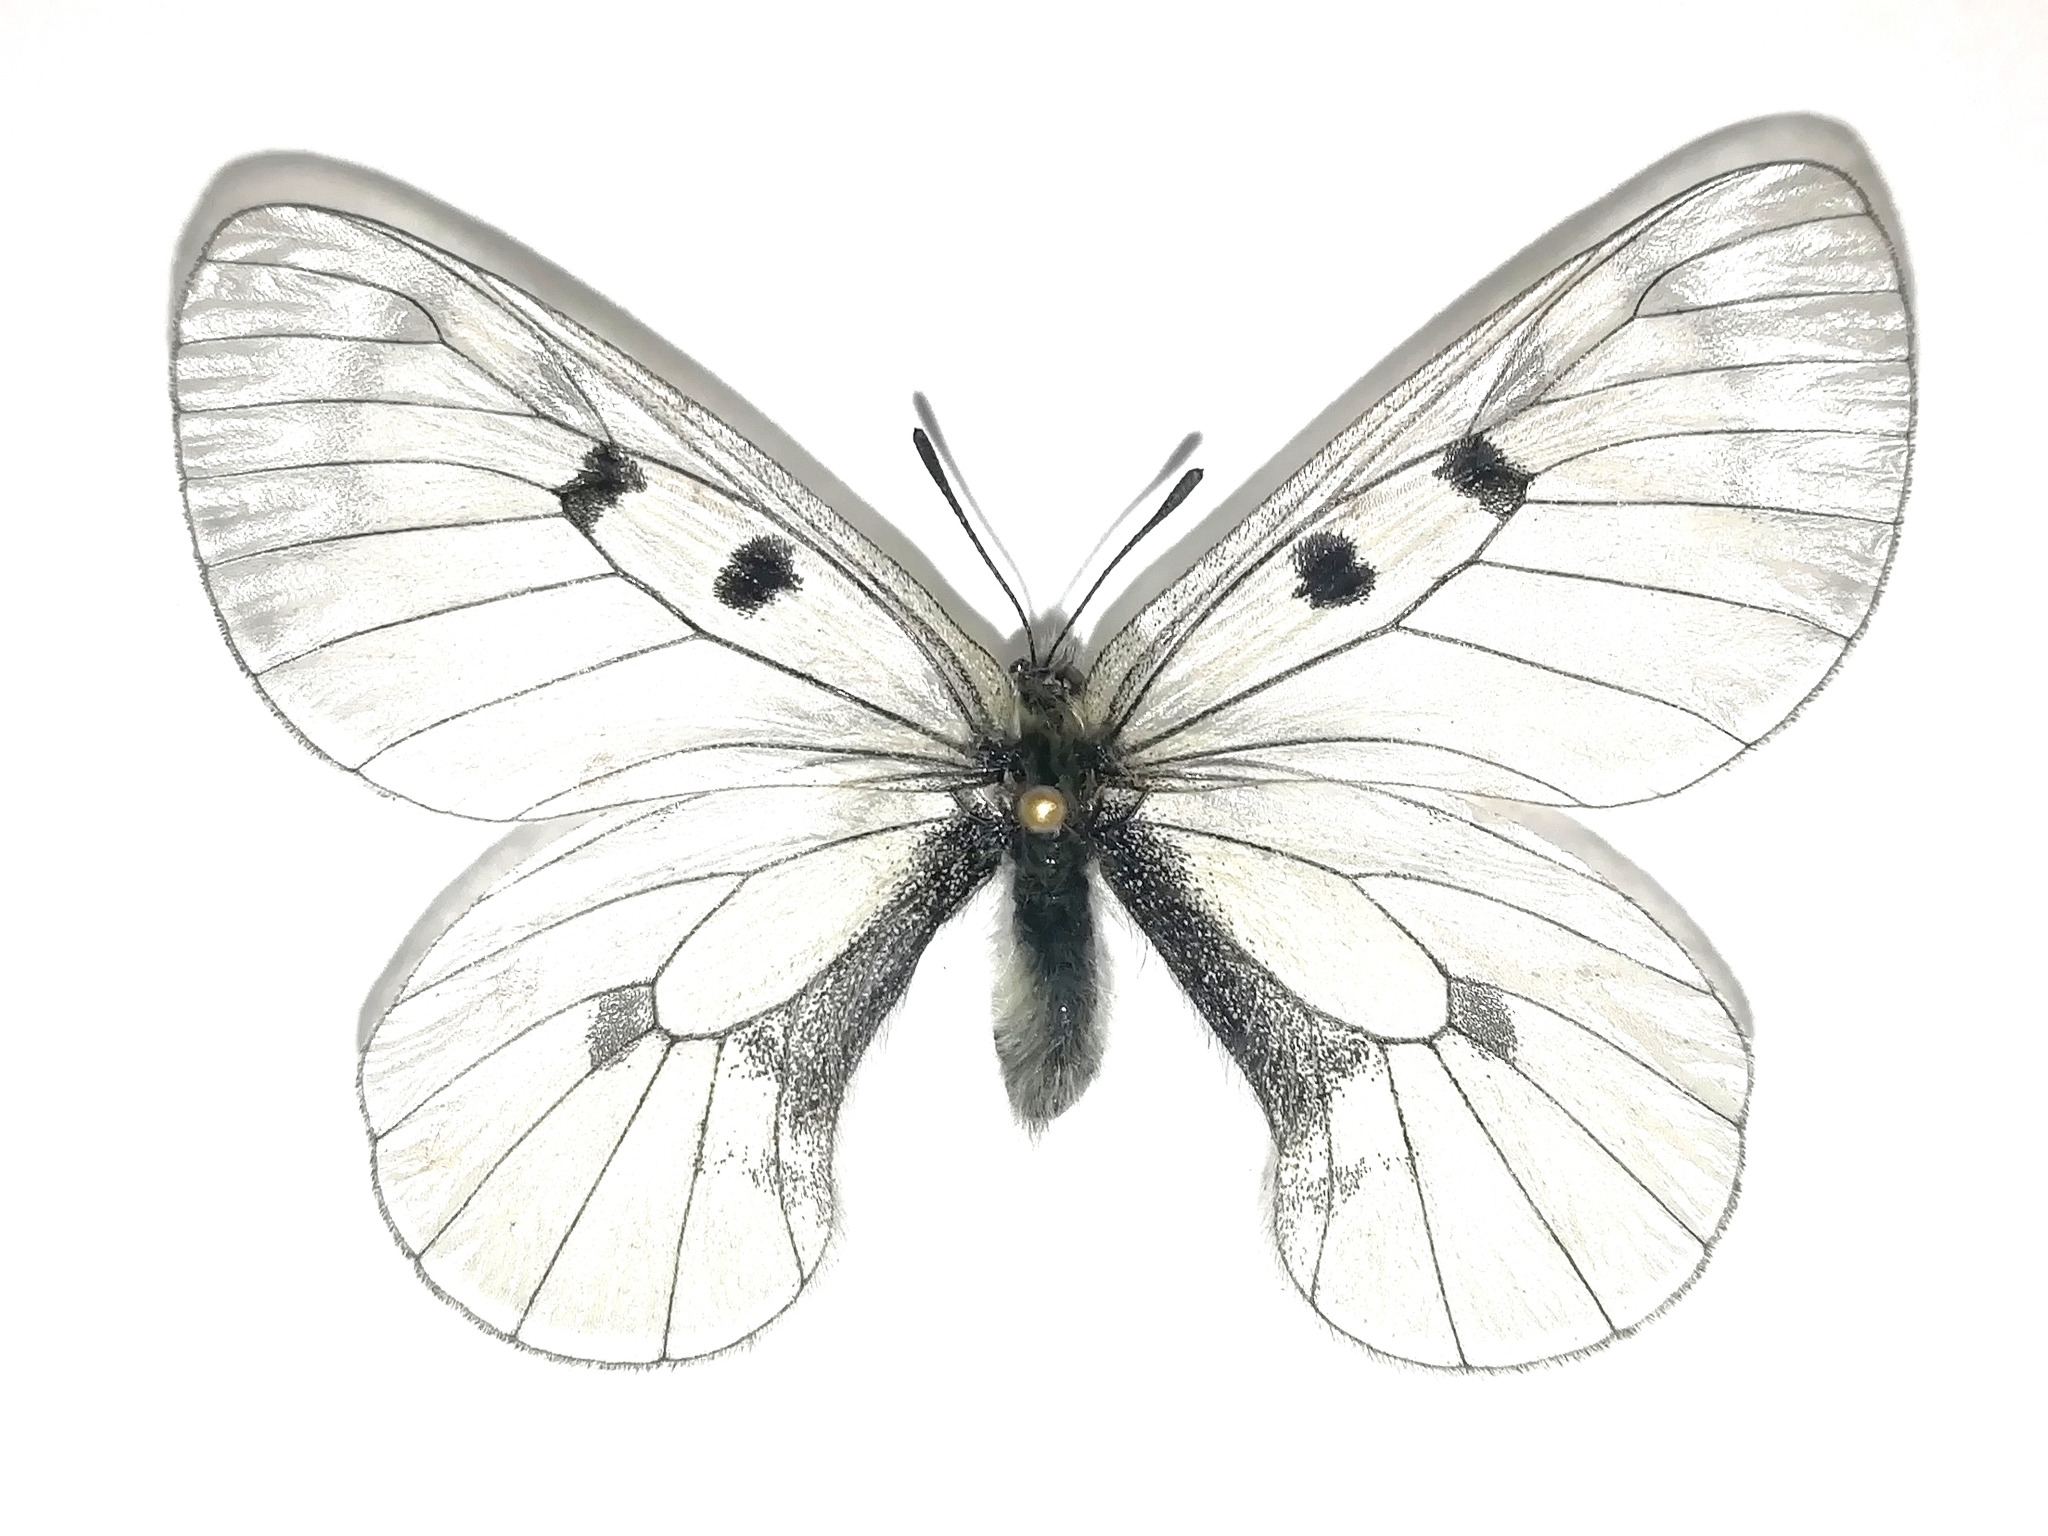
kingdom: Animalia
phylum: Arthropoda
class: Insecta
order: Lepidoptera
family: Papilionidae
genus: Parnassius
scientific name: Parnassius mnemosyne
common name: Clouded apollo
